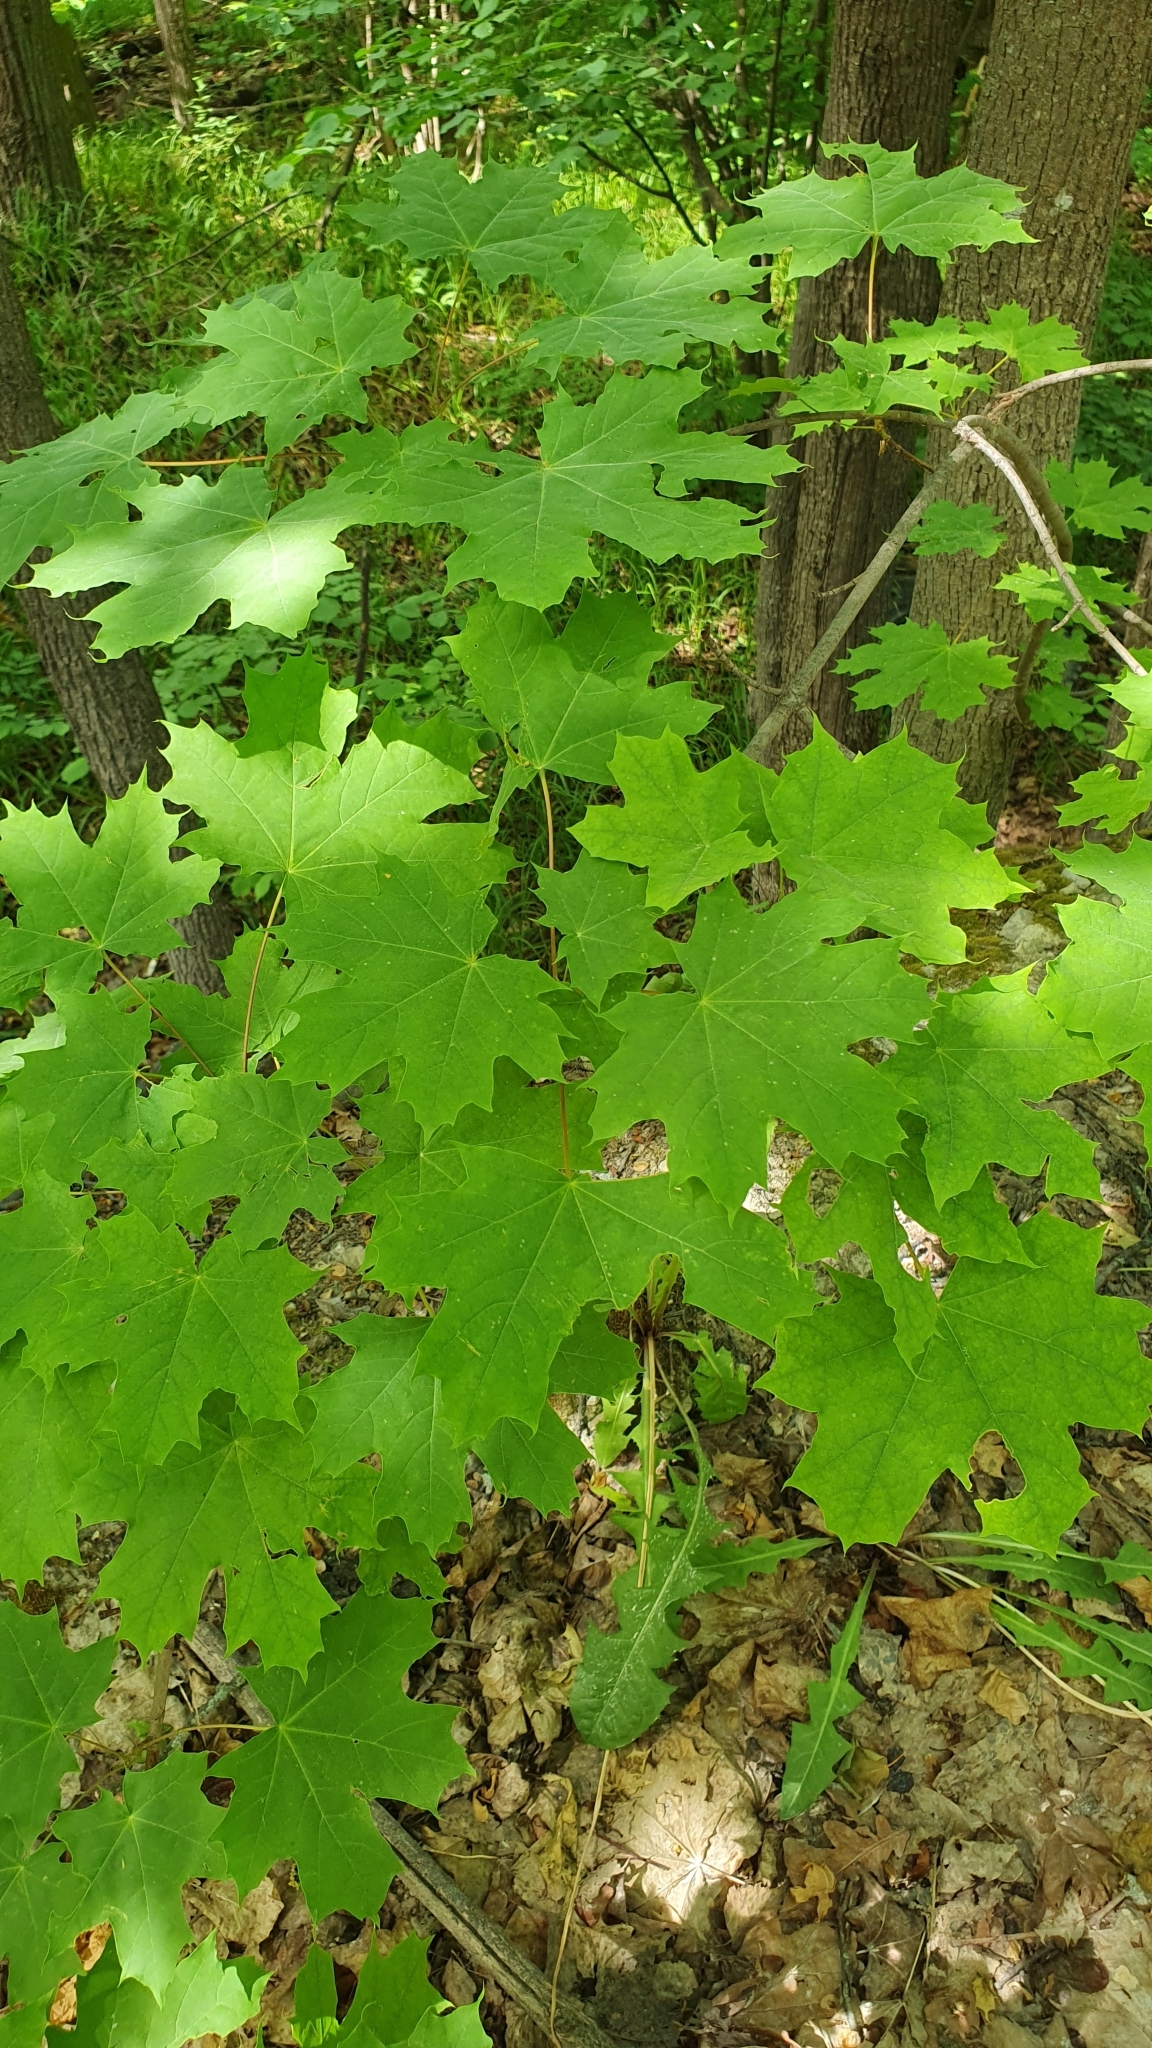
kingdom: Plantae
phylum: Tracheophyta
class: Magnoliopsida
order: Sapindales
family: Sapindaceae
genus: Acer
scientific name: Acer platanoides
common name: Norway maple
